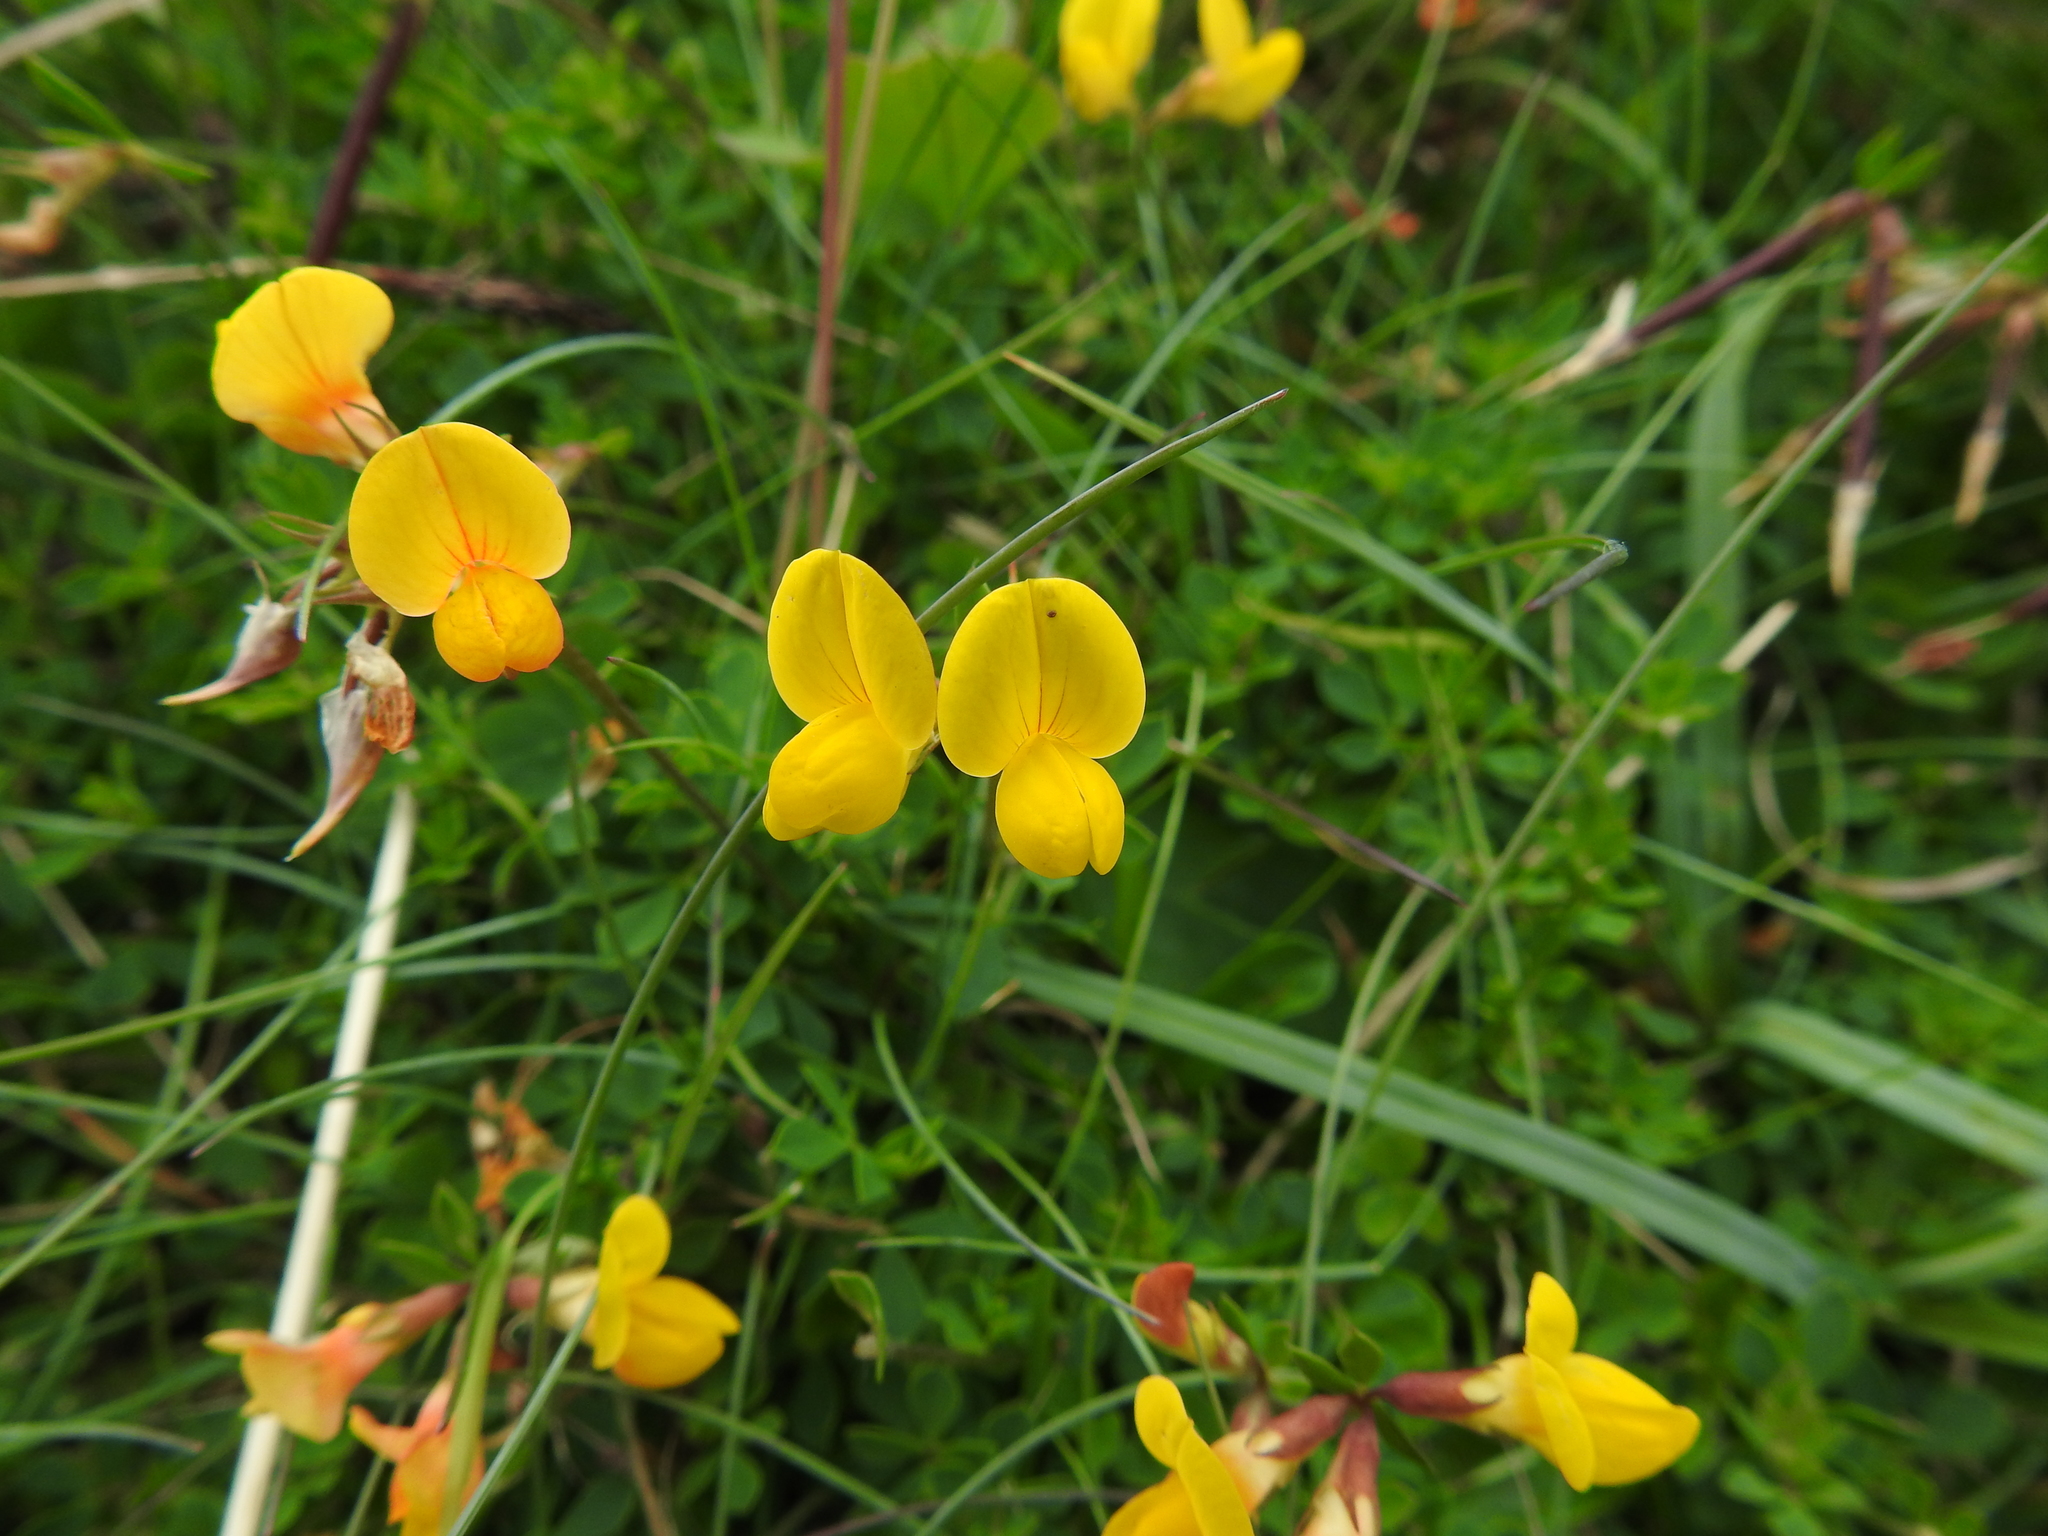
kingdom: Plantae
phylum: Tracheophyta
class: Magnoliopsida
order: Fabales
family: Fabaceae
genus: Lotus
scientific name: Lotus corniculatus
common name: Common bird's-foot-trefoil
